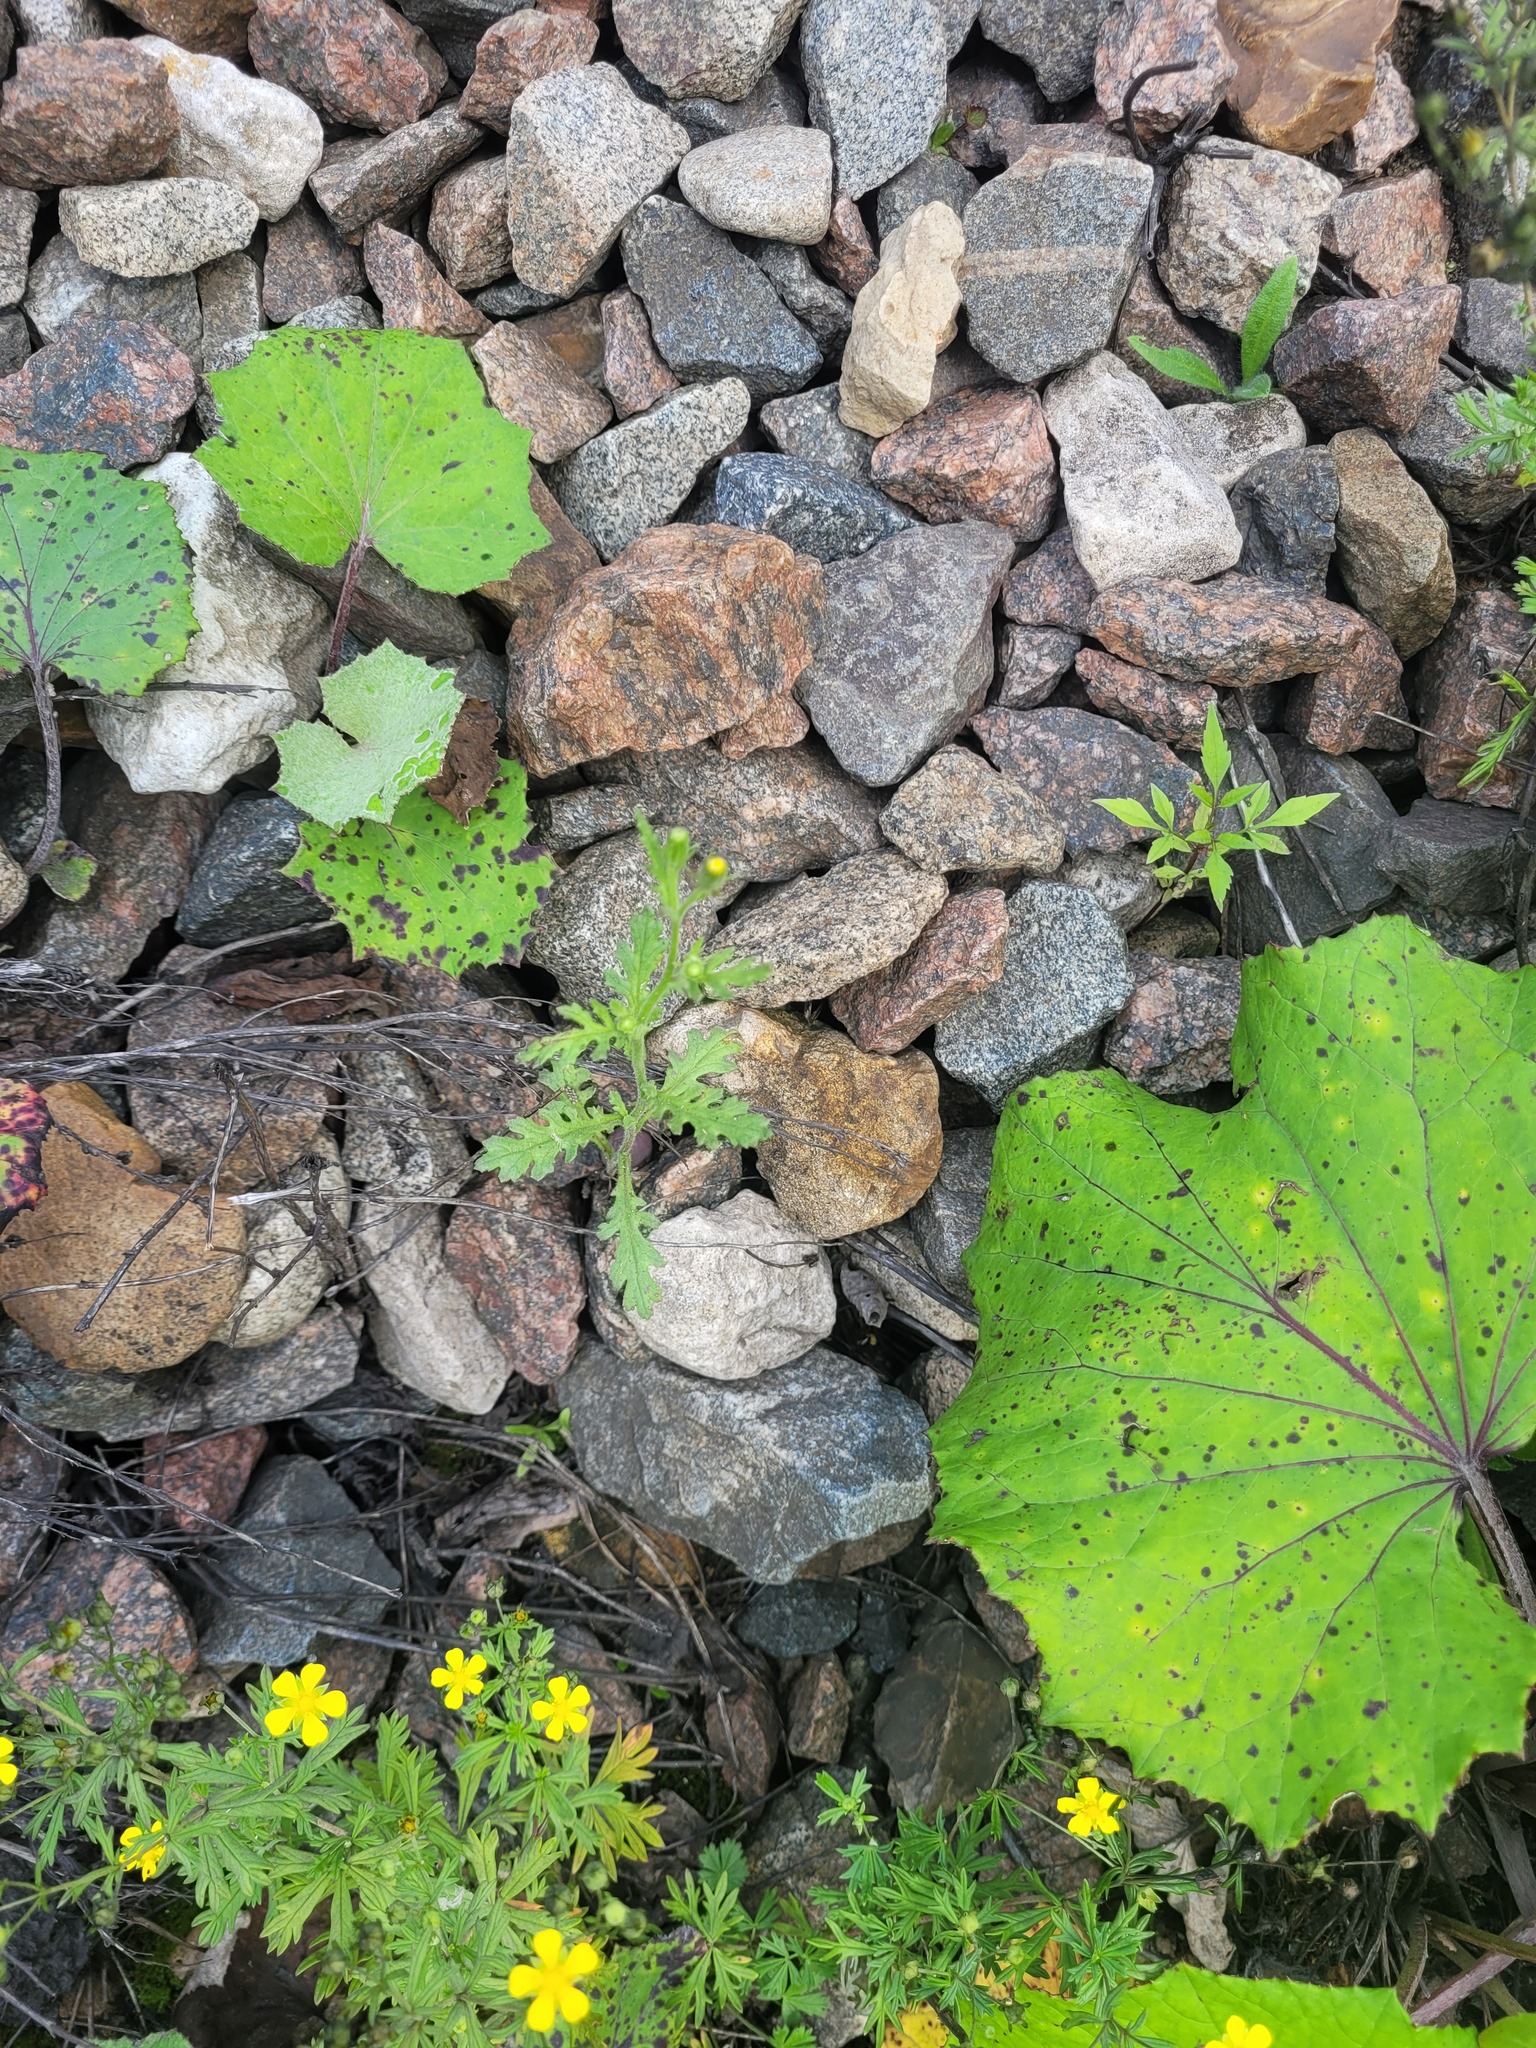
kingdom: Plantae
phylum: Tracheophyta
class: Magnoliopsida
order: Asterales
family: Asteraceae
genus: Senecio
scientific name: Senecio viscosus
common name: Sticky groundsel
